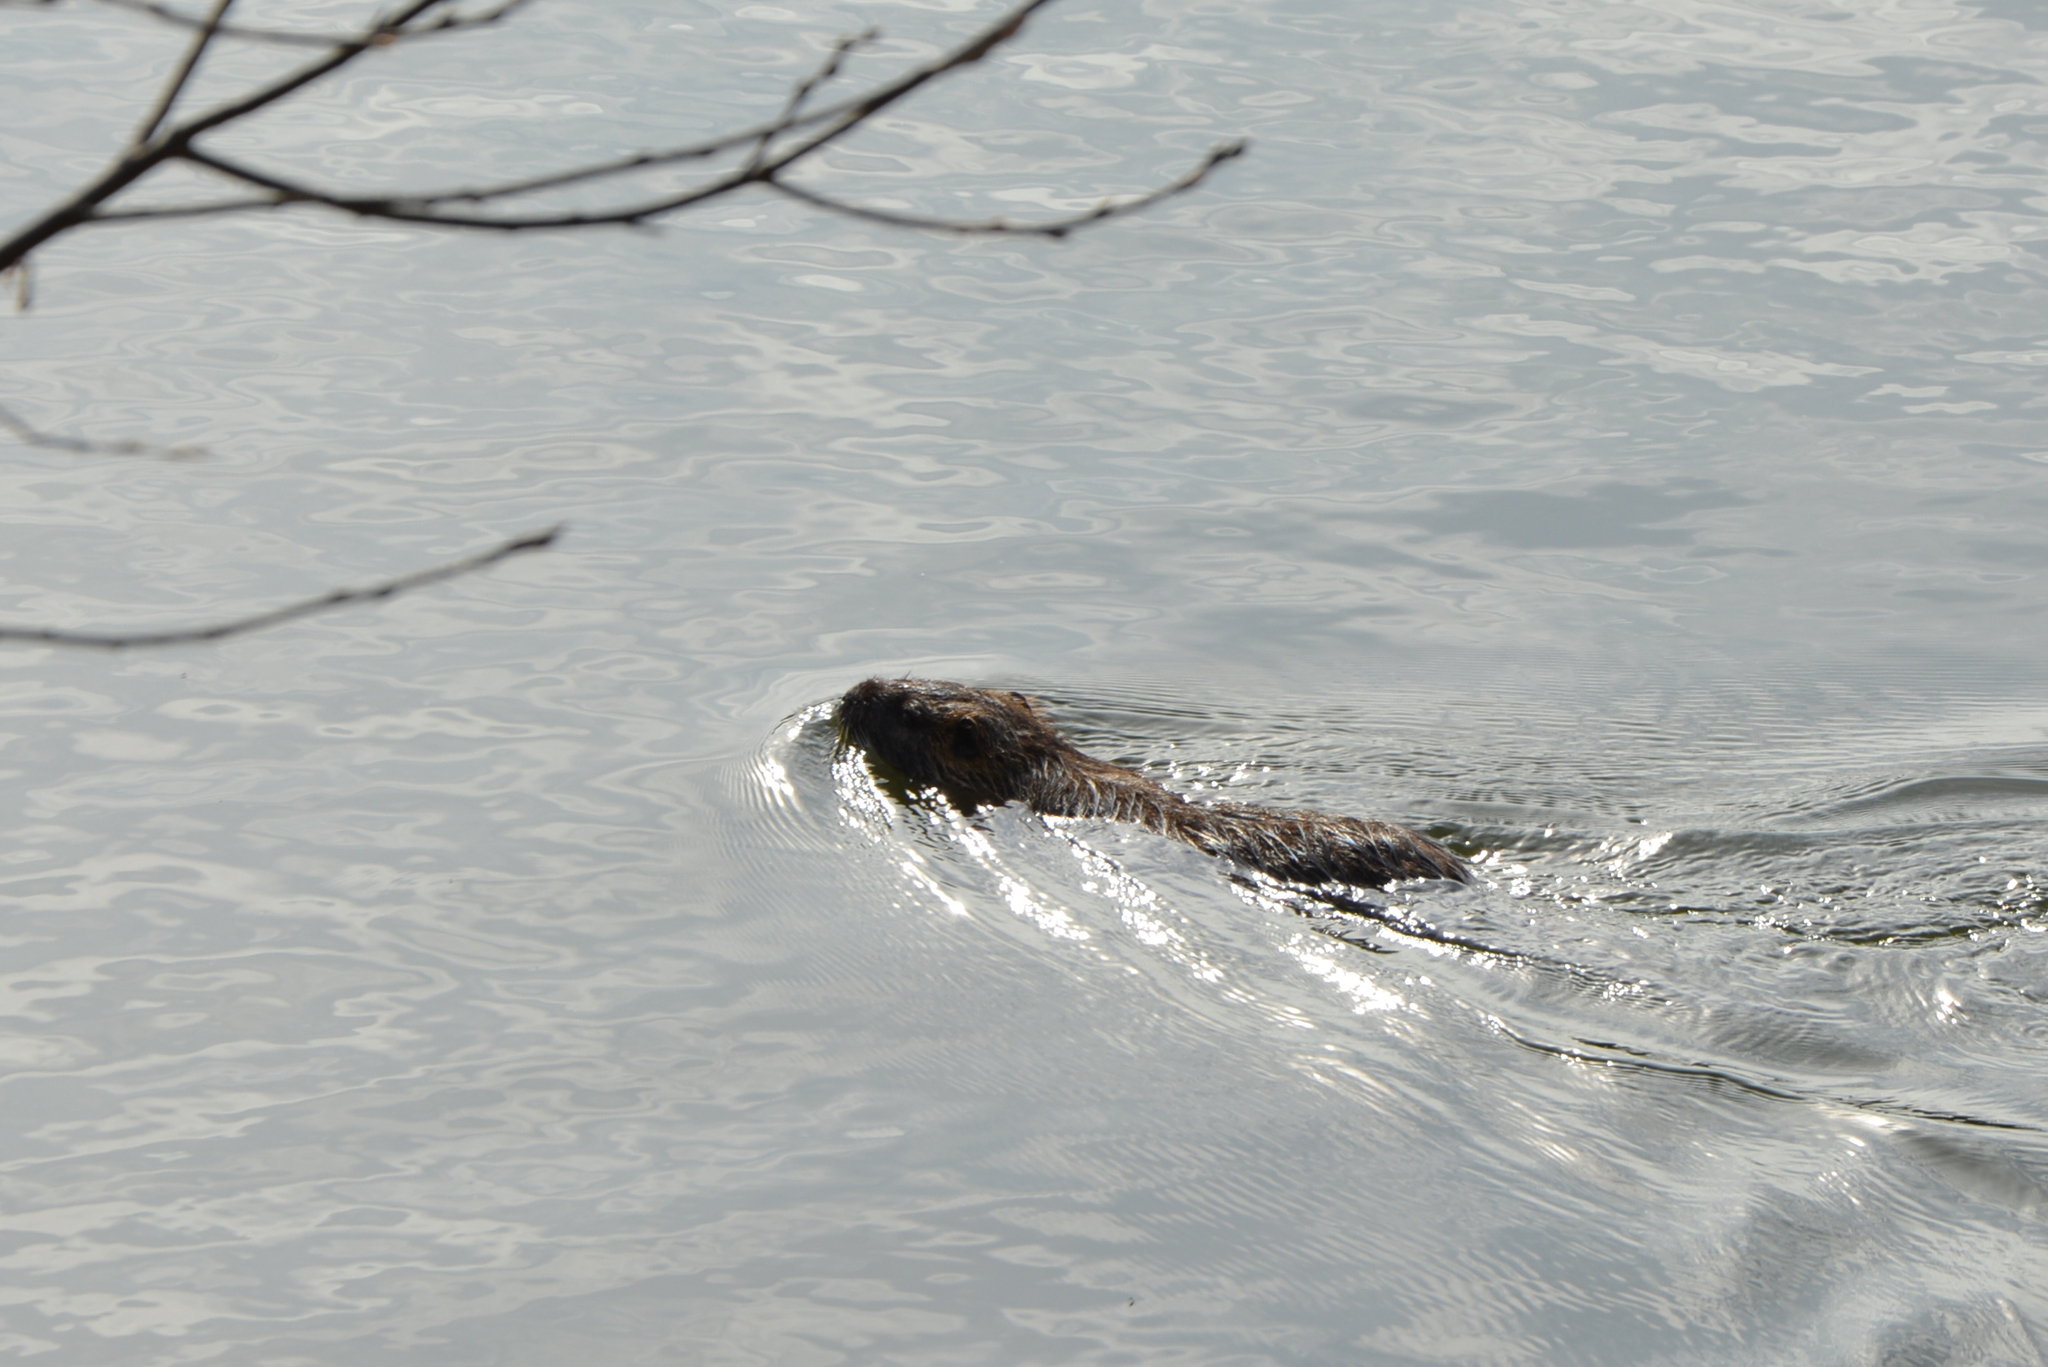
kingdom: Animalia
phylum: Chordata
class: Mammalia
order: Rodentia
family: Myocastoridae
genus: Myocastor
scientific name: Myocastor coypus
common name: Coypu
